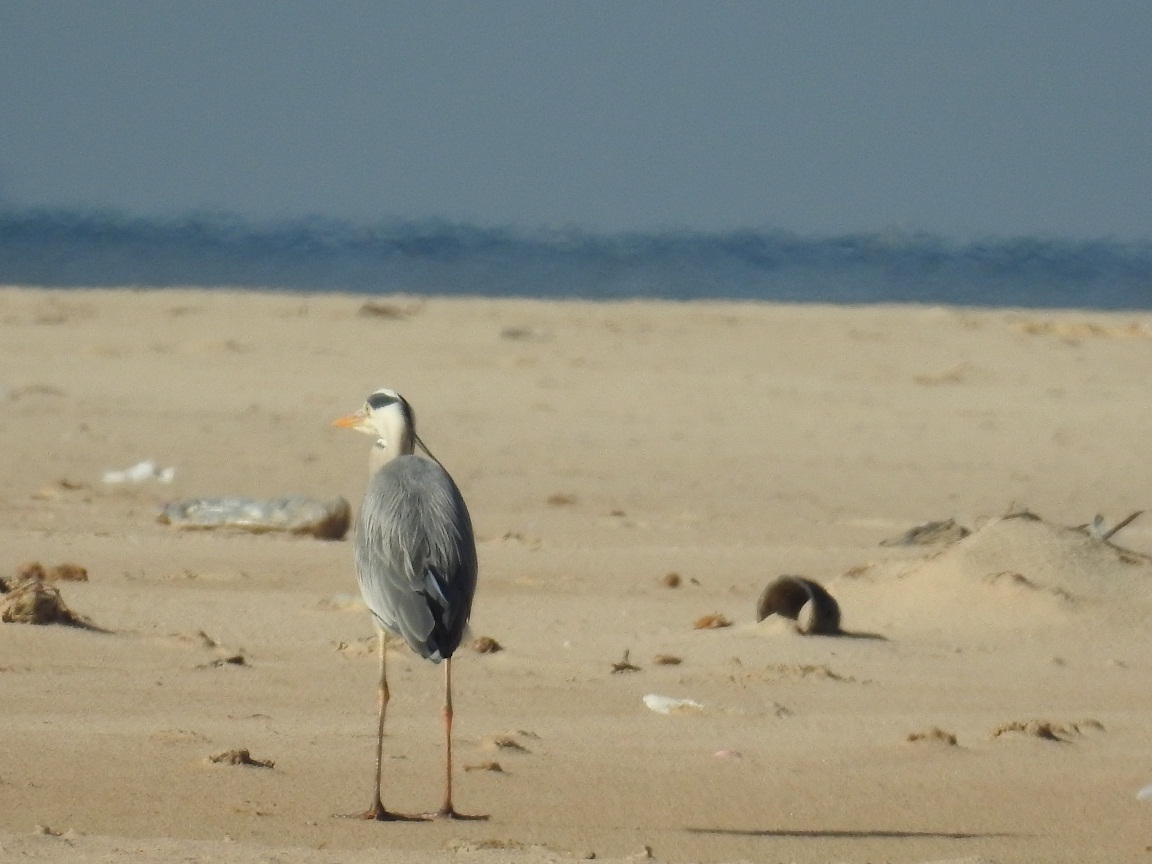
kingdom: Animalia
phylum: Chordata
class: Aves
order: Pelecaniformes
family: Ardeidae
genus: Ardea
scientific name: Ardea cinerea
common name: Grey heron
